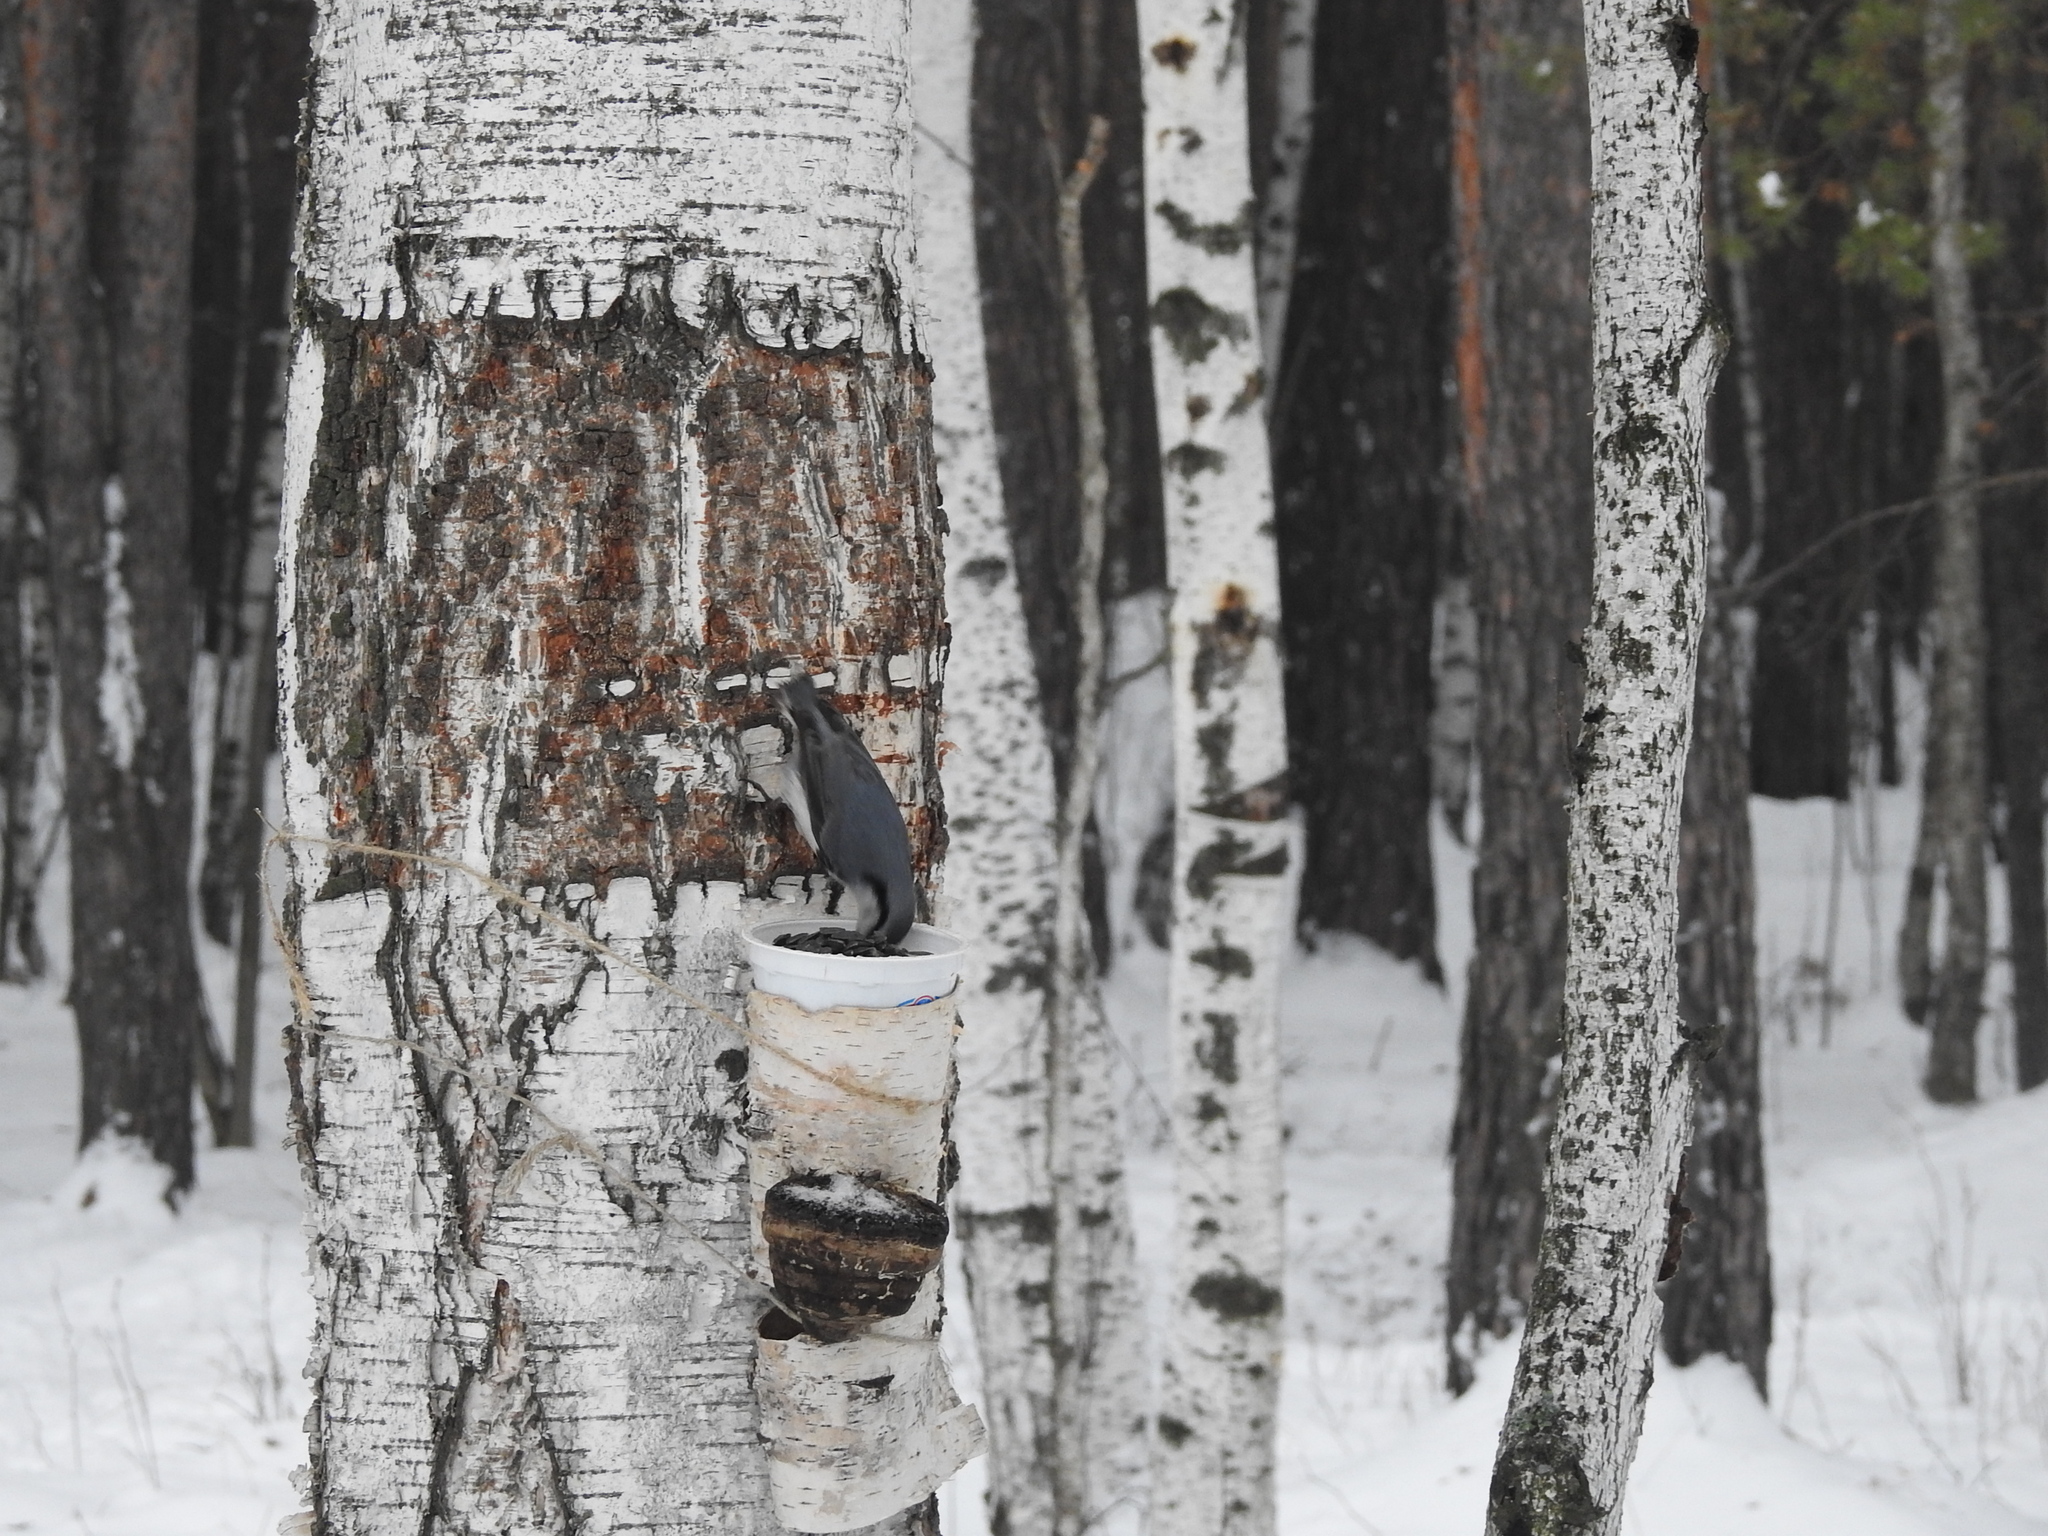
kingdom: Animalia
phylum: Chordata
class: Aves
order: Passeriformes
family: Sittidae
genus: Sitta
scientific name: Sitta europaea
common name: Eurasian nuthatch
